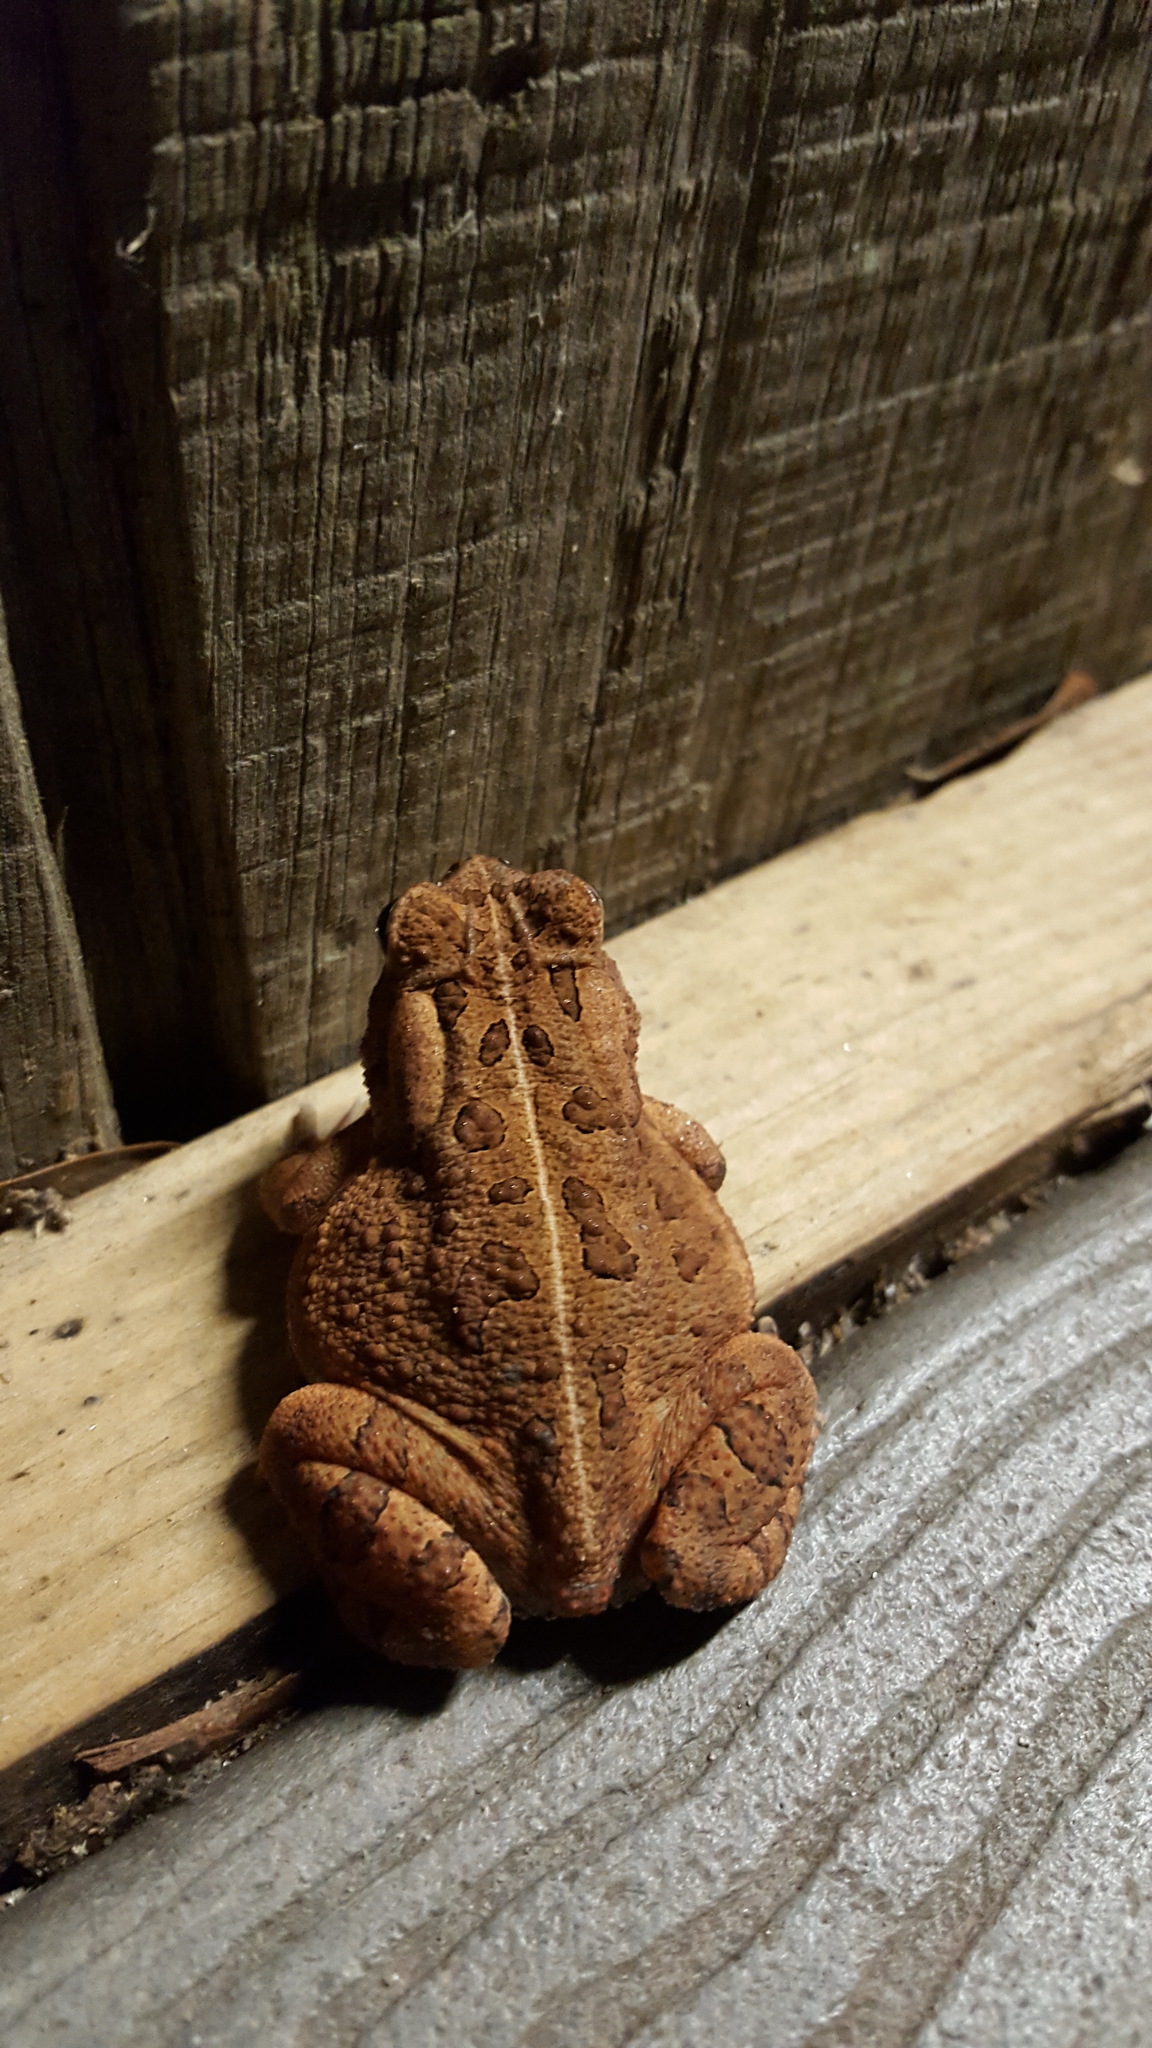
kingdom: Animalia
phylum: Chordata
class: Amphibia
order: Anura
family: Bufonidae
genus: Anaxyrus
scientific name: Anaxyrus fowleri
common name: Fowler's toad
